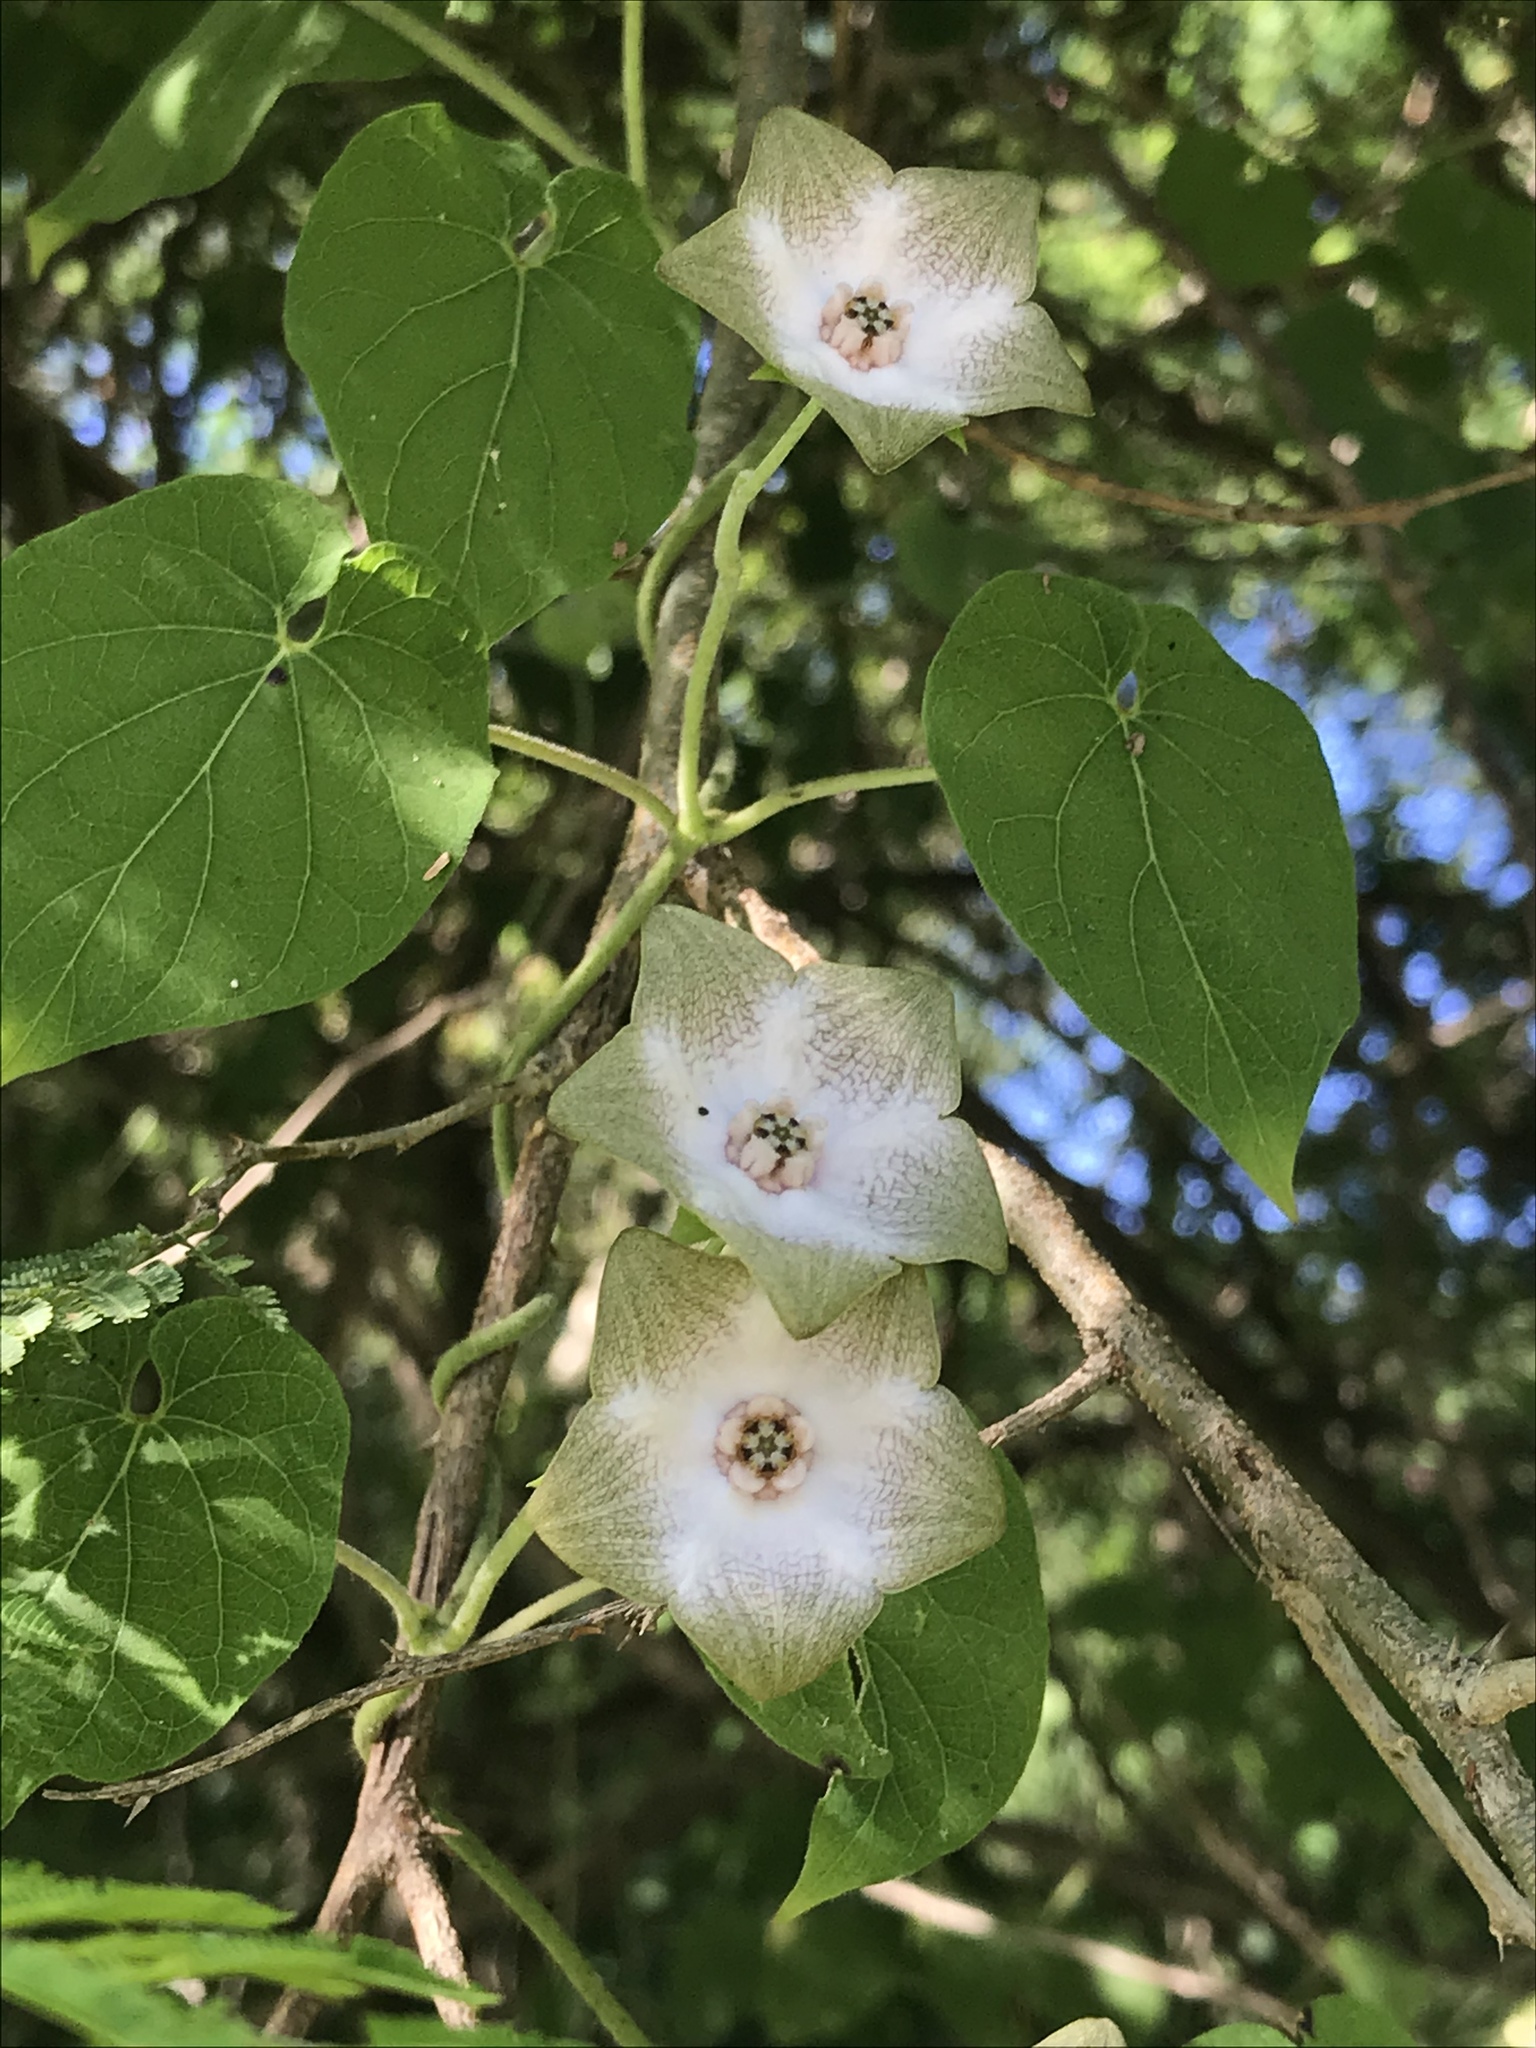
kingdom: Plantae
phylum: Tracheophyta
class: Magnoliopsida
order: Gentianales
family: Apocynaceae
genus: Polystemma
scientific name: Polystemma guatemalense
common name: Arborescente rattan
